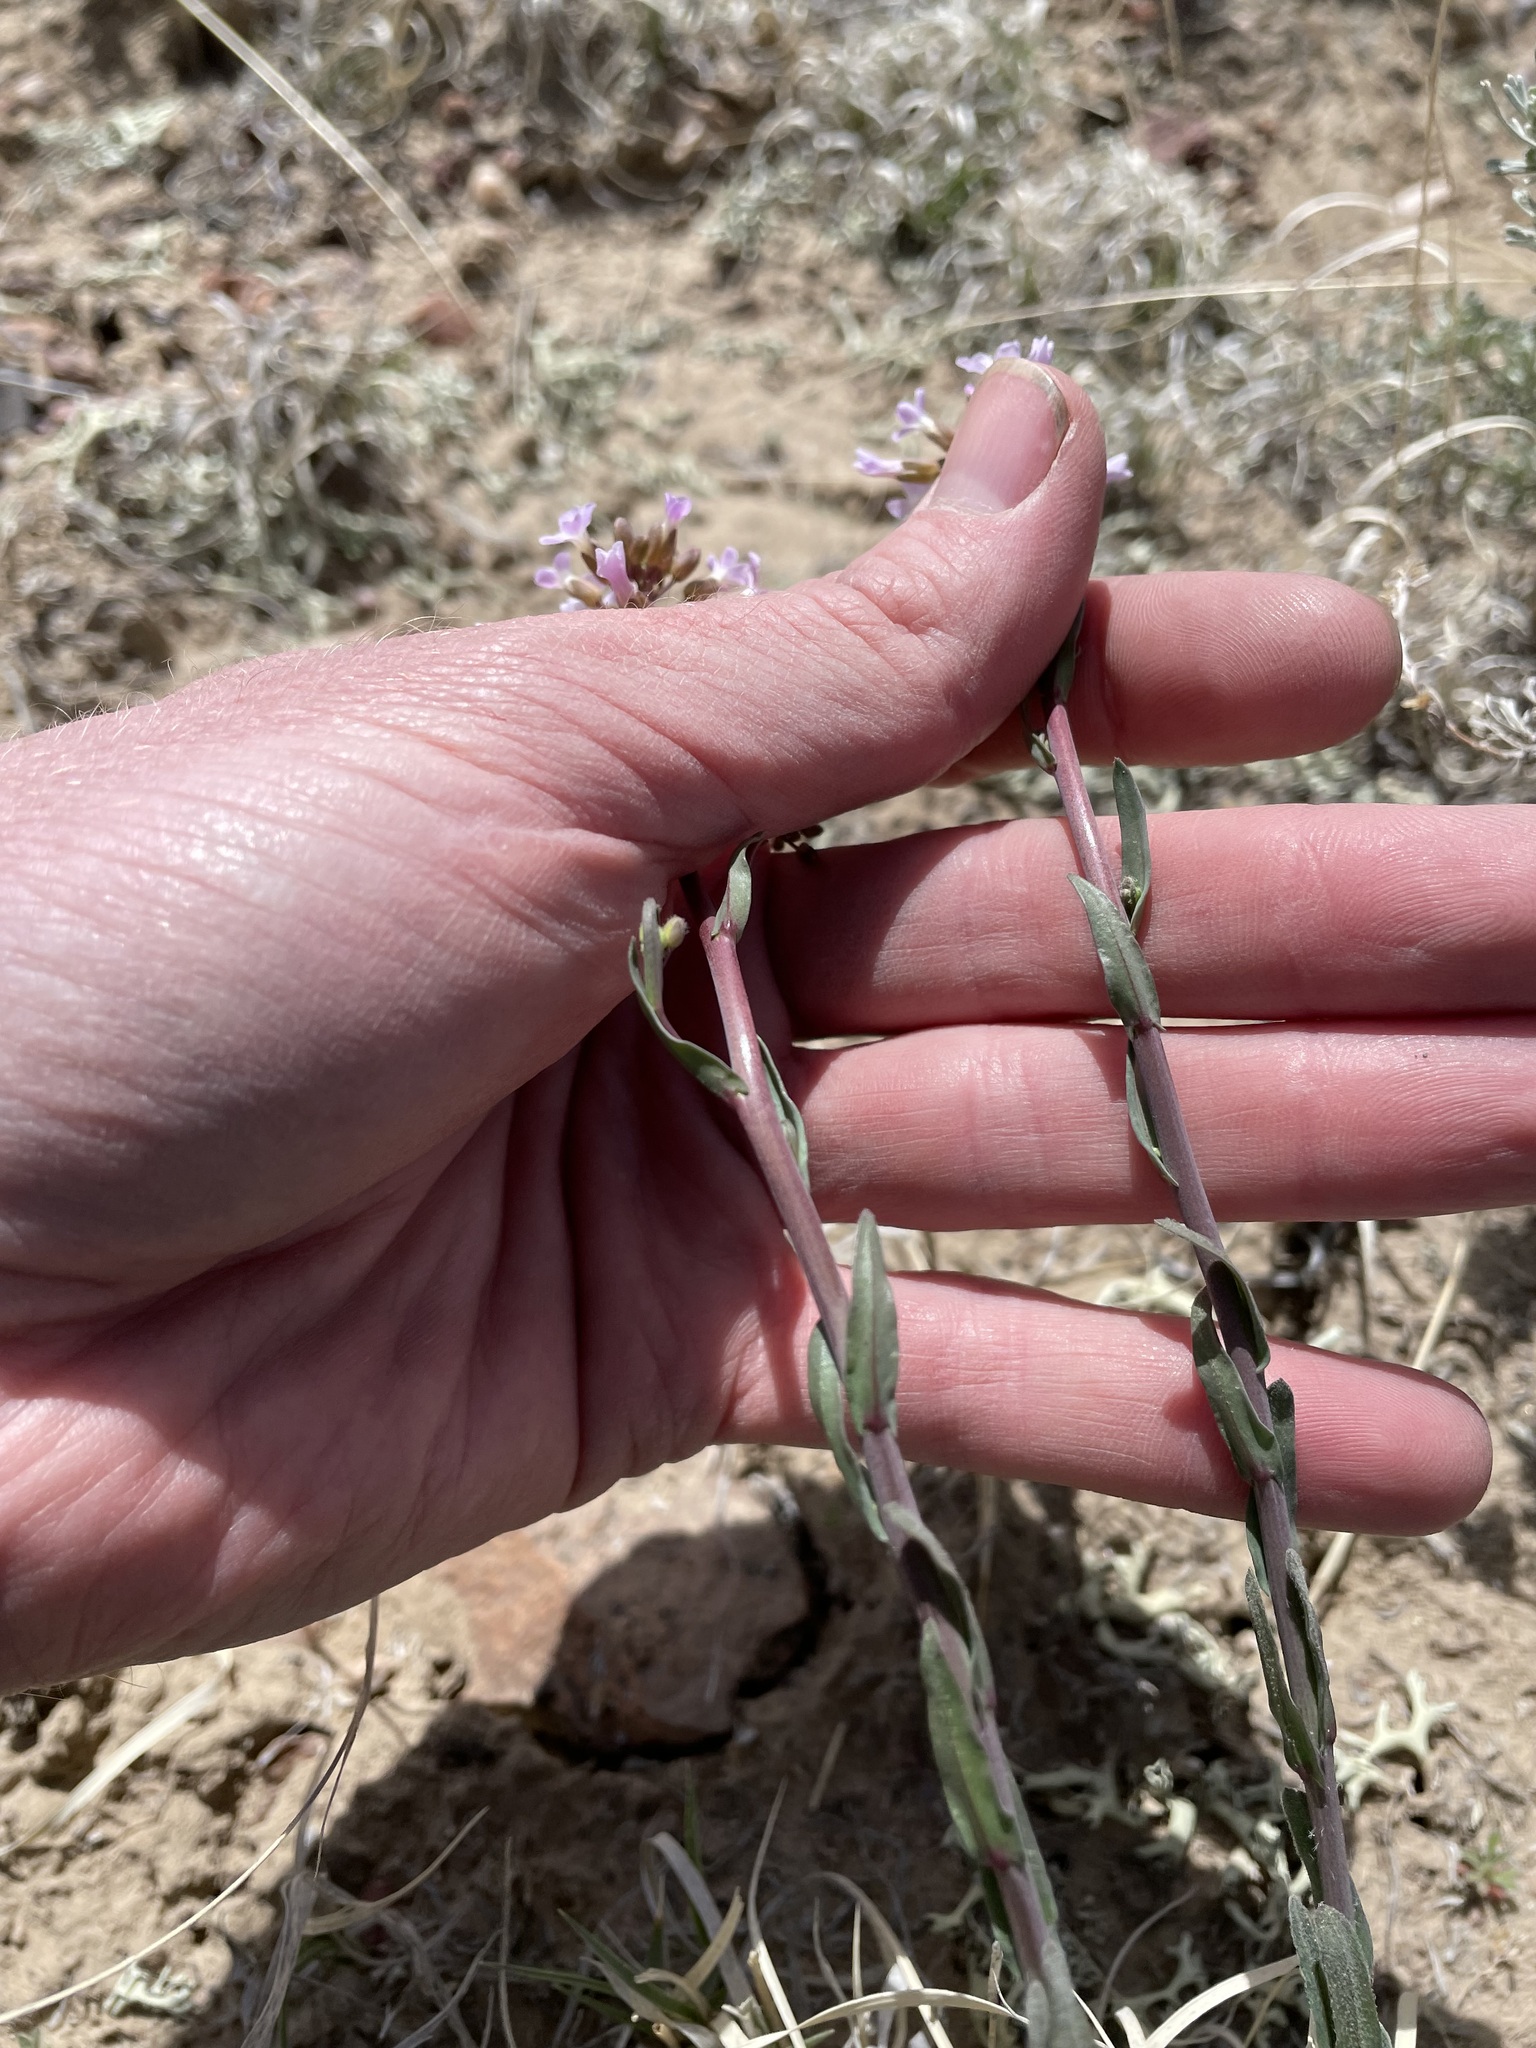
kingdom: Plantae
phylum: Tracheophyta
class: Magnoliopsida
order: Brassicales
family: Brassicaceae
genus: Boechera
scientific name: Boechera quadrangulensis
